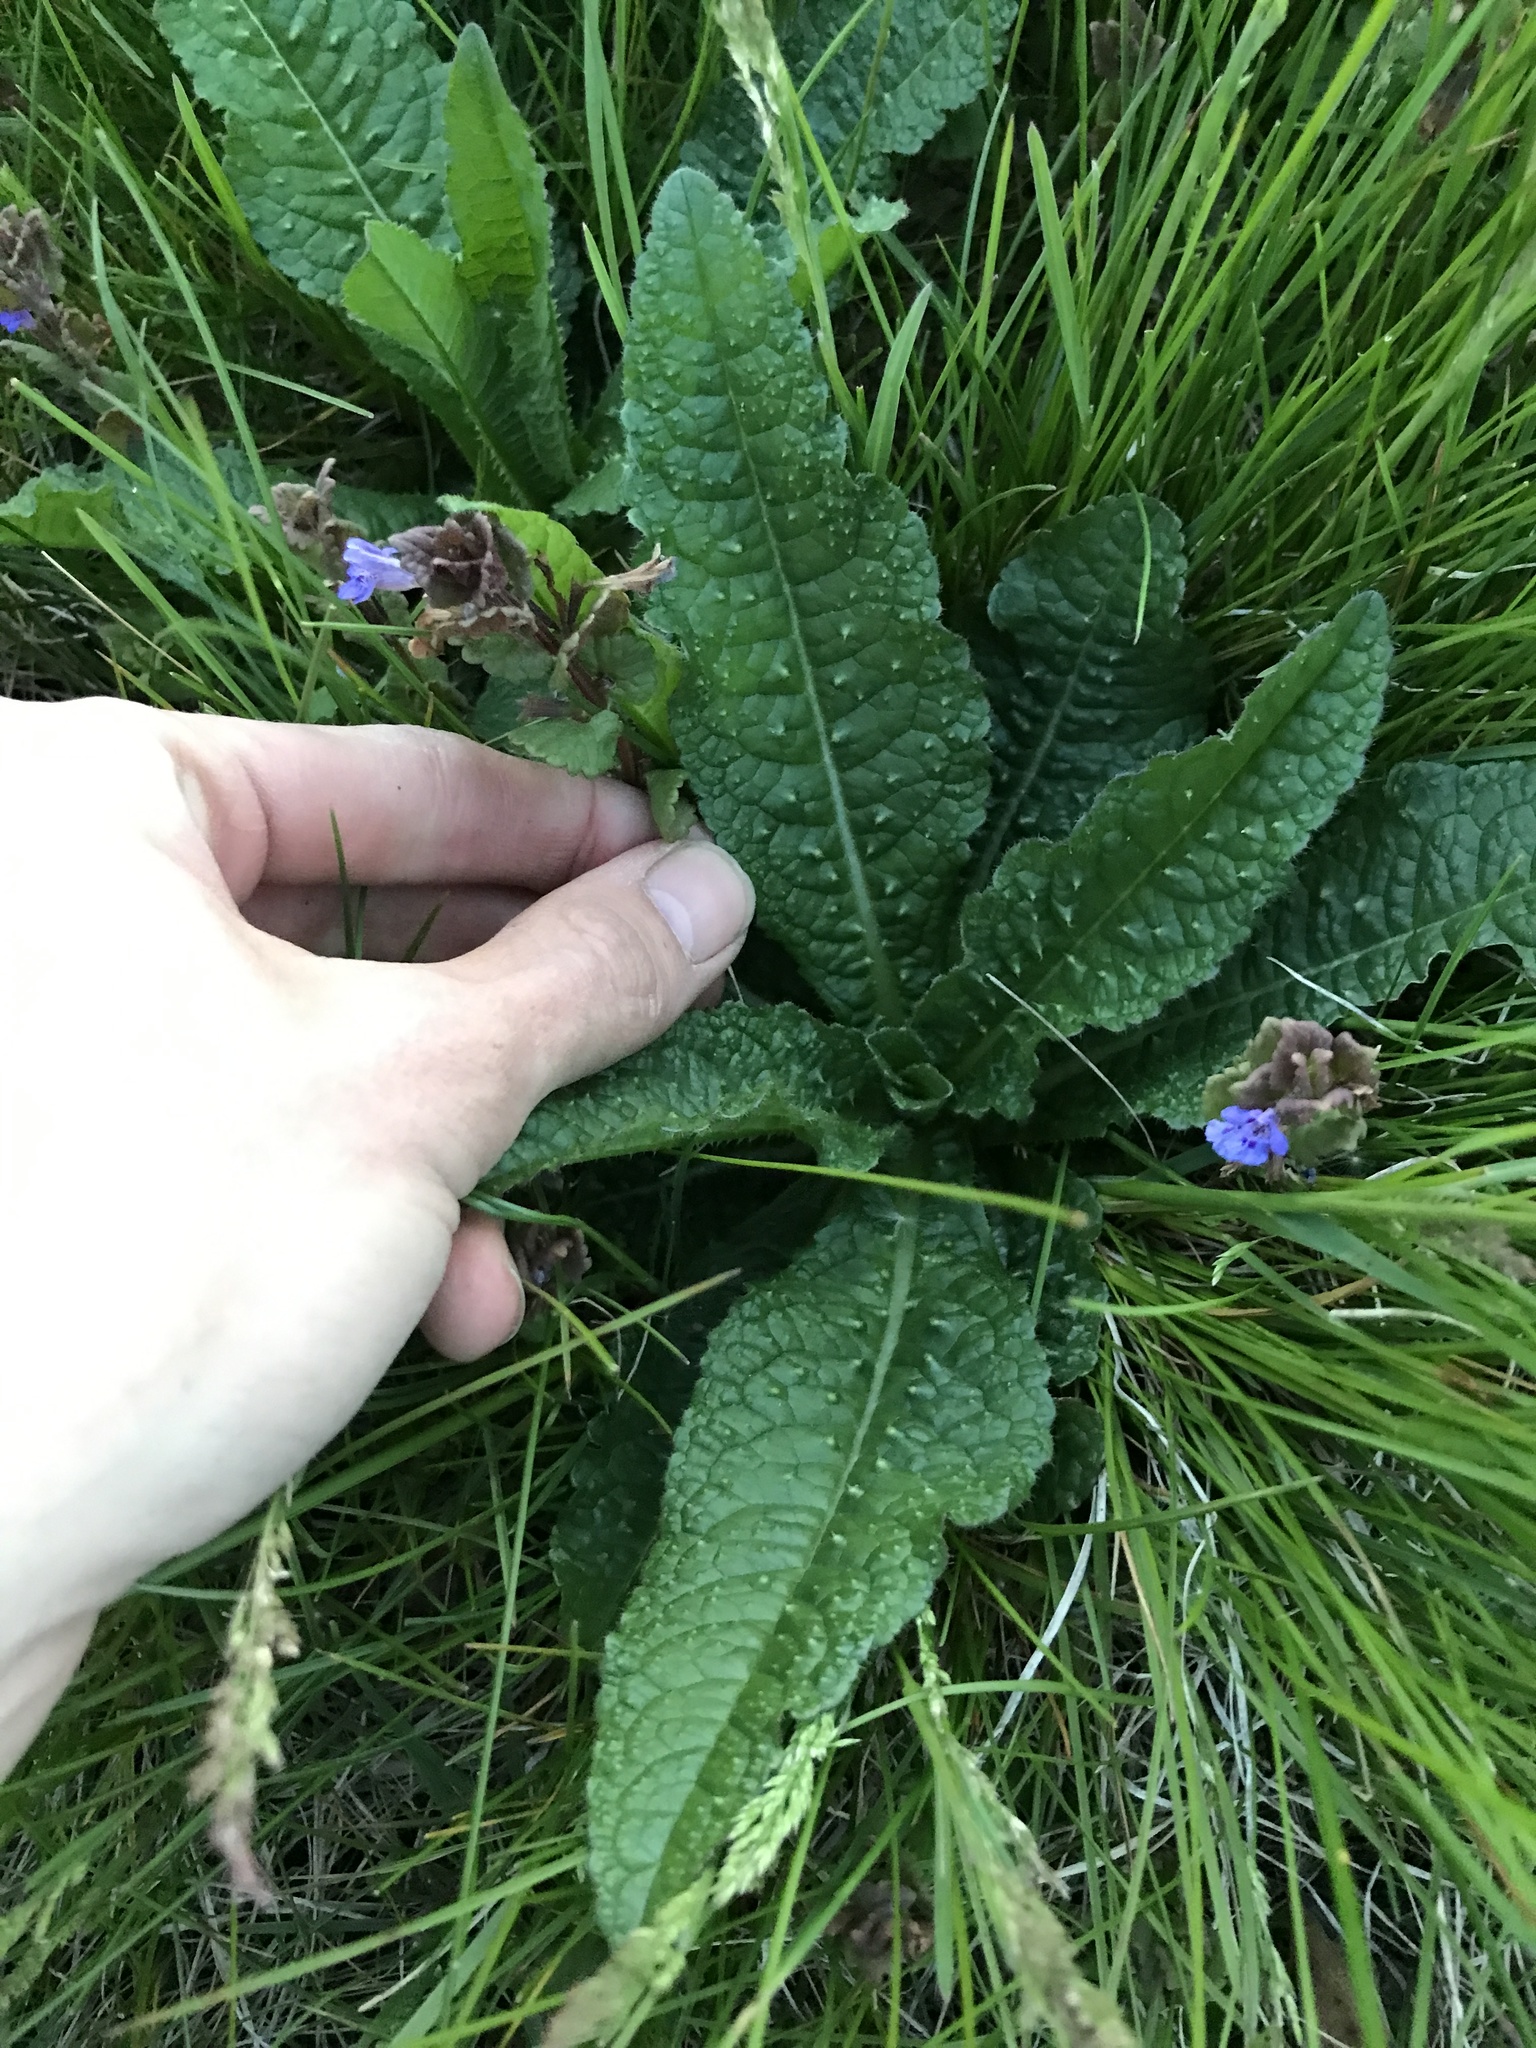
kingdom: Plantae
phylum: Tracheophyta
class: Magnoliopsida
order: Dipsacales
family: Caprifoliaceae
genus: Dipsacus
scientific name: Dipsacus fullonum
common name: Teasel
